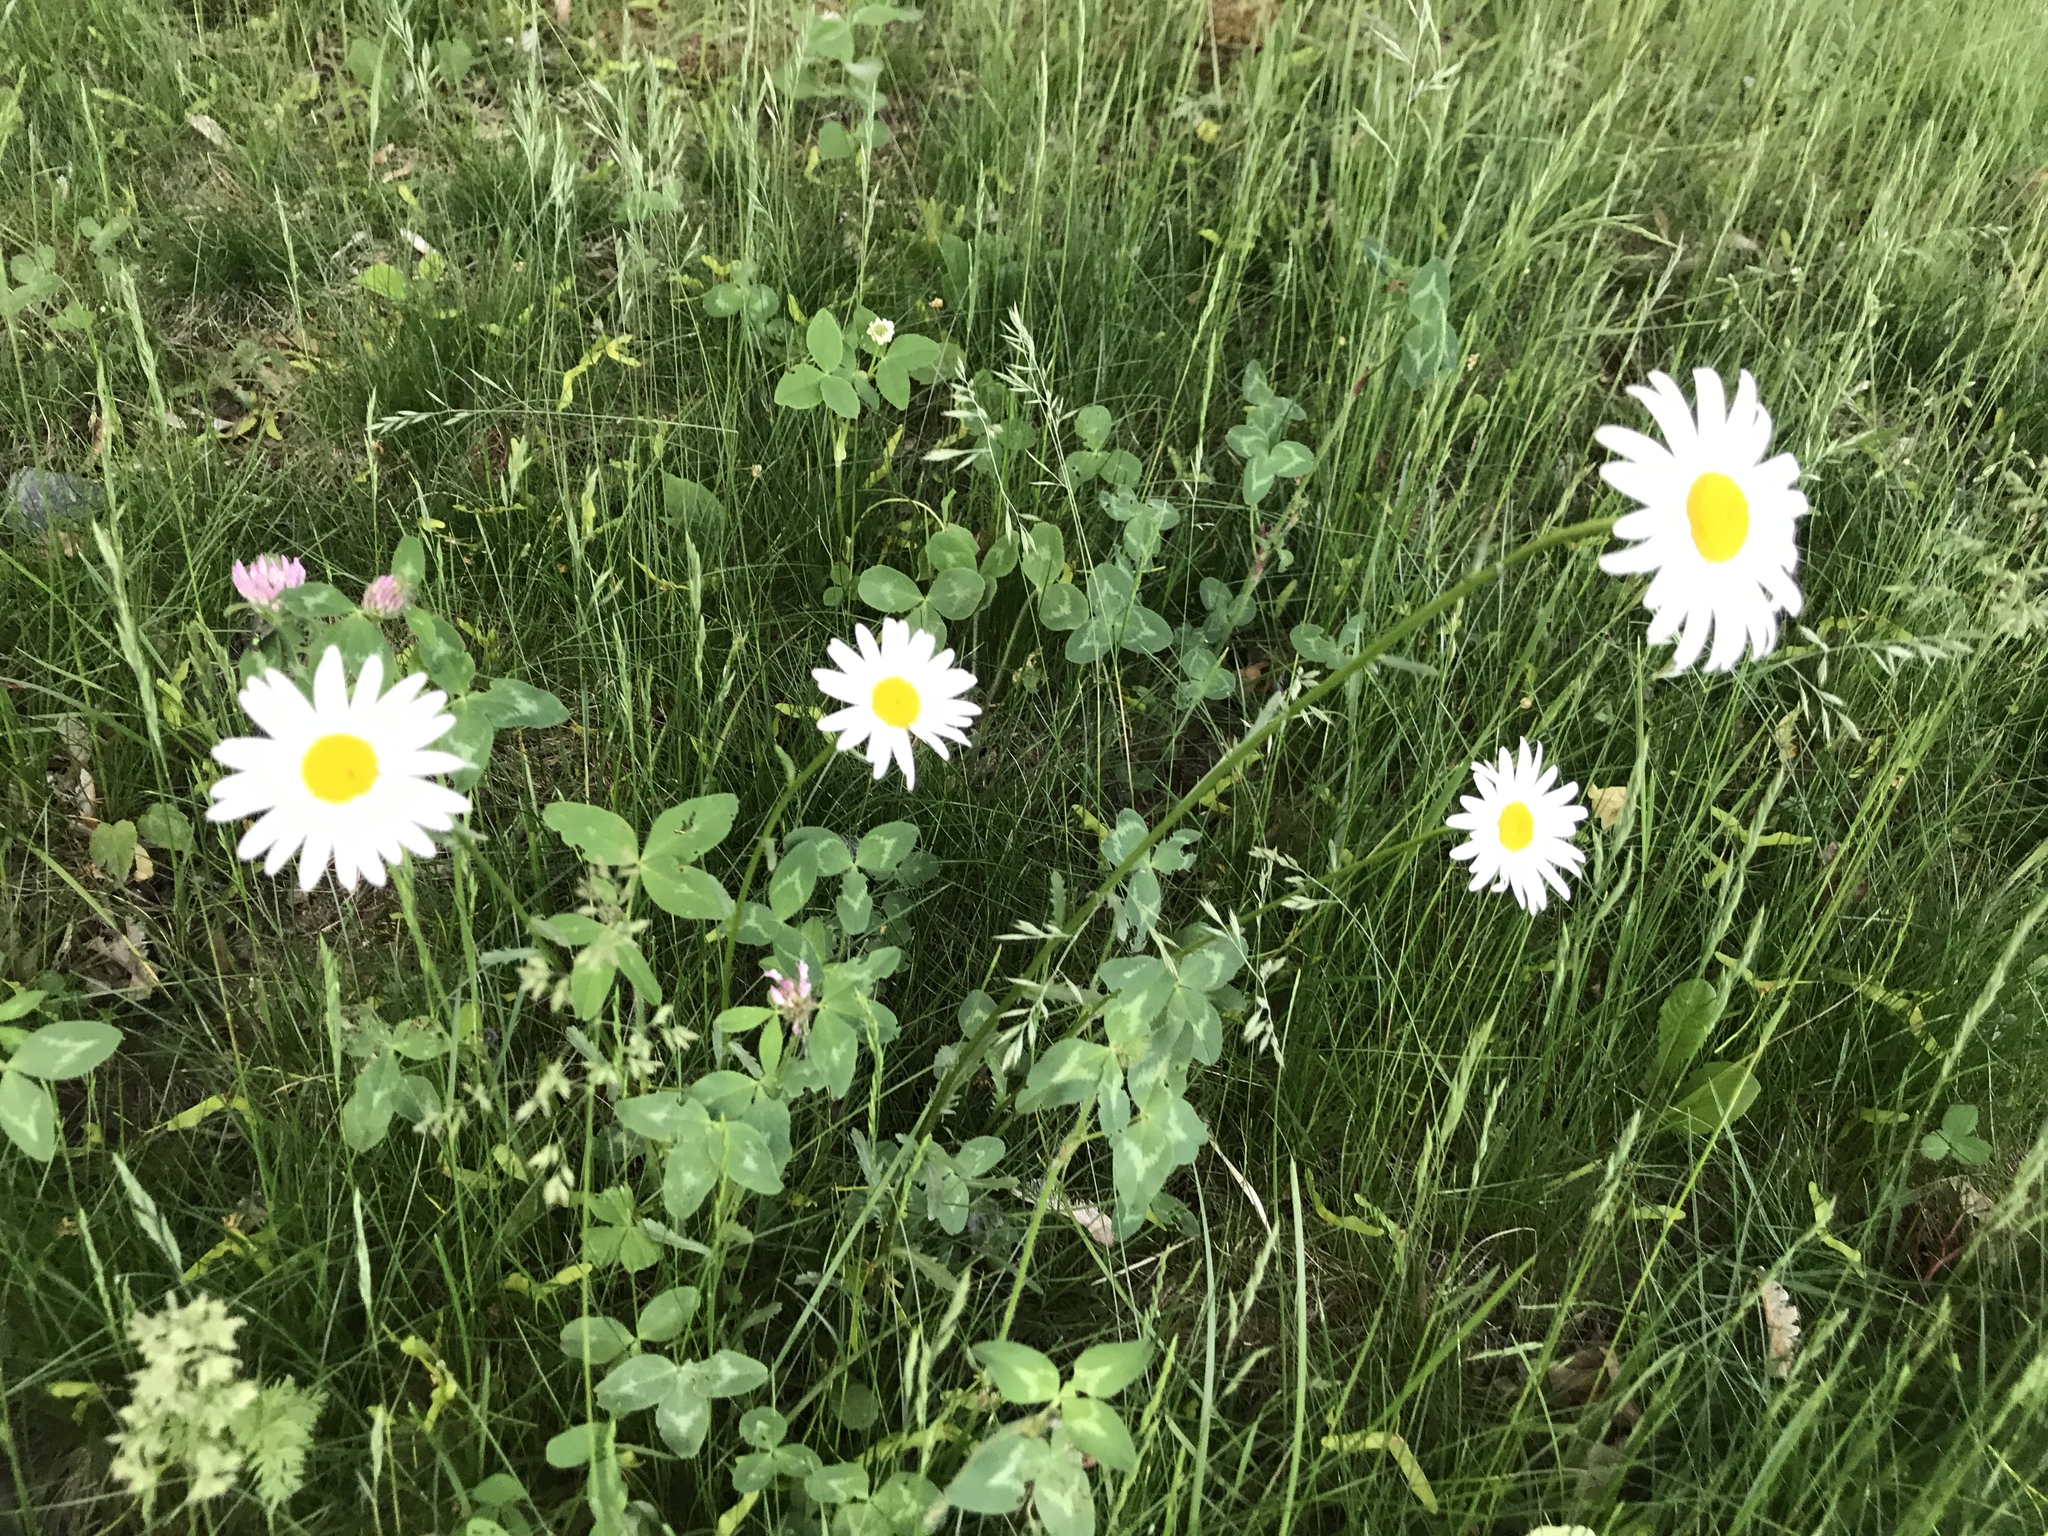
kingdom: Plantae
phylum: Tracheophyta
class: Magnoliopsida
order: Asterales
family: Asteraceae
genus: Leucanthemum
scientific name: Leucanthemum vulgare
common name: Oxeye daisy
